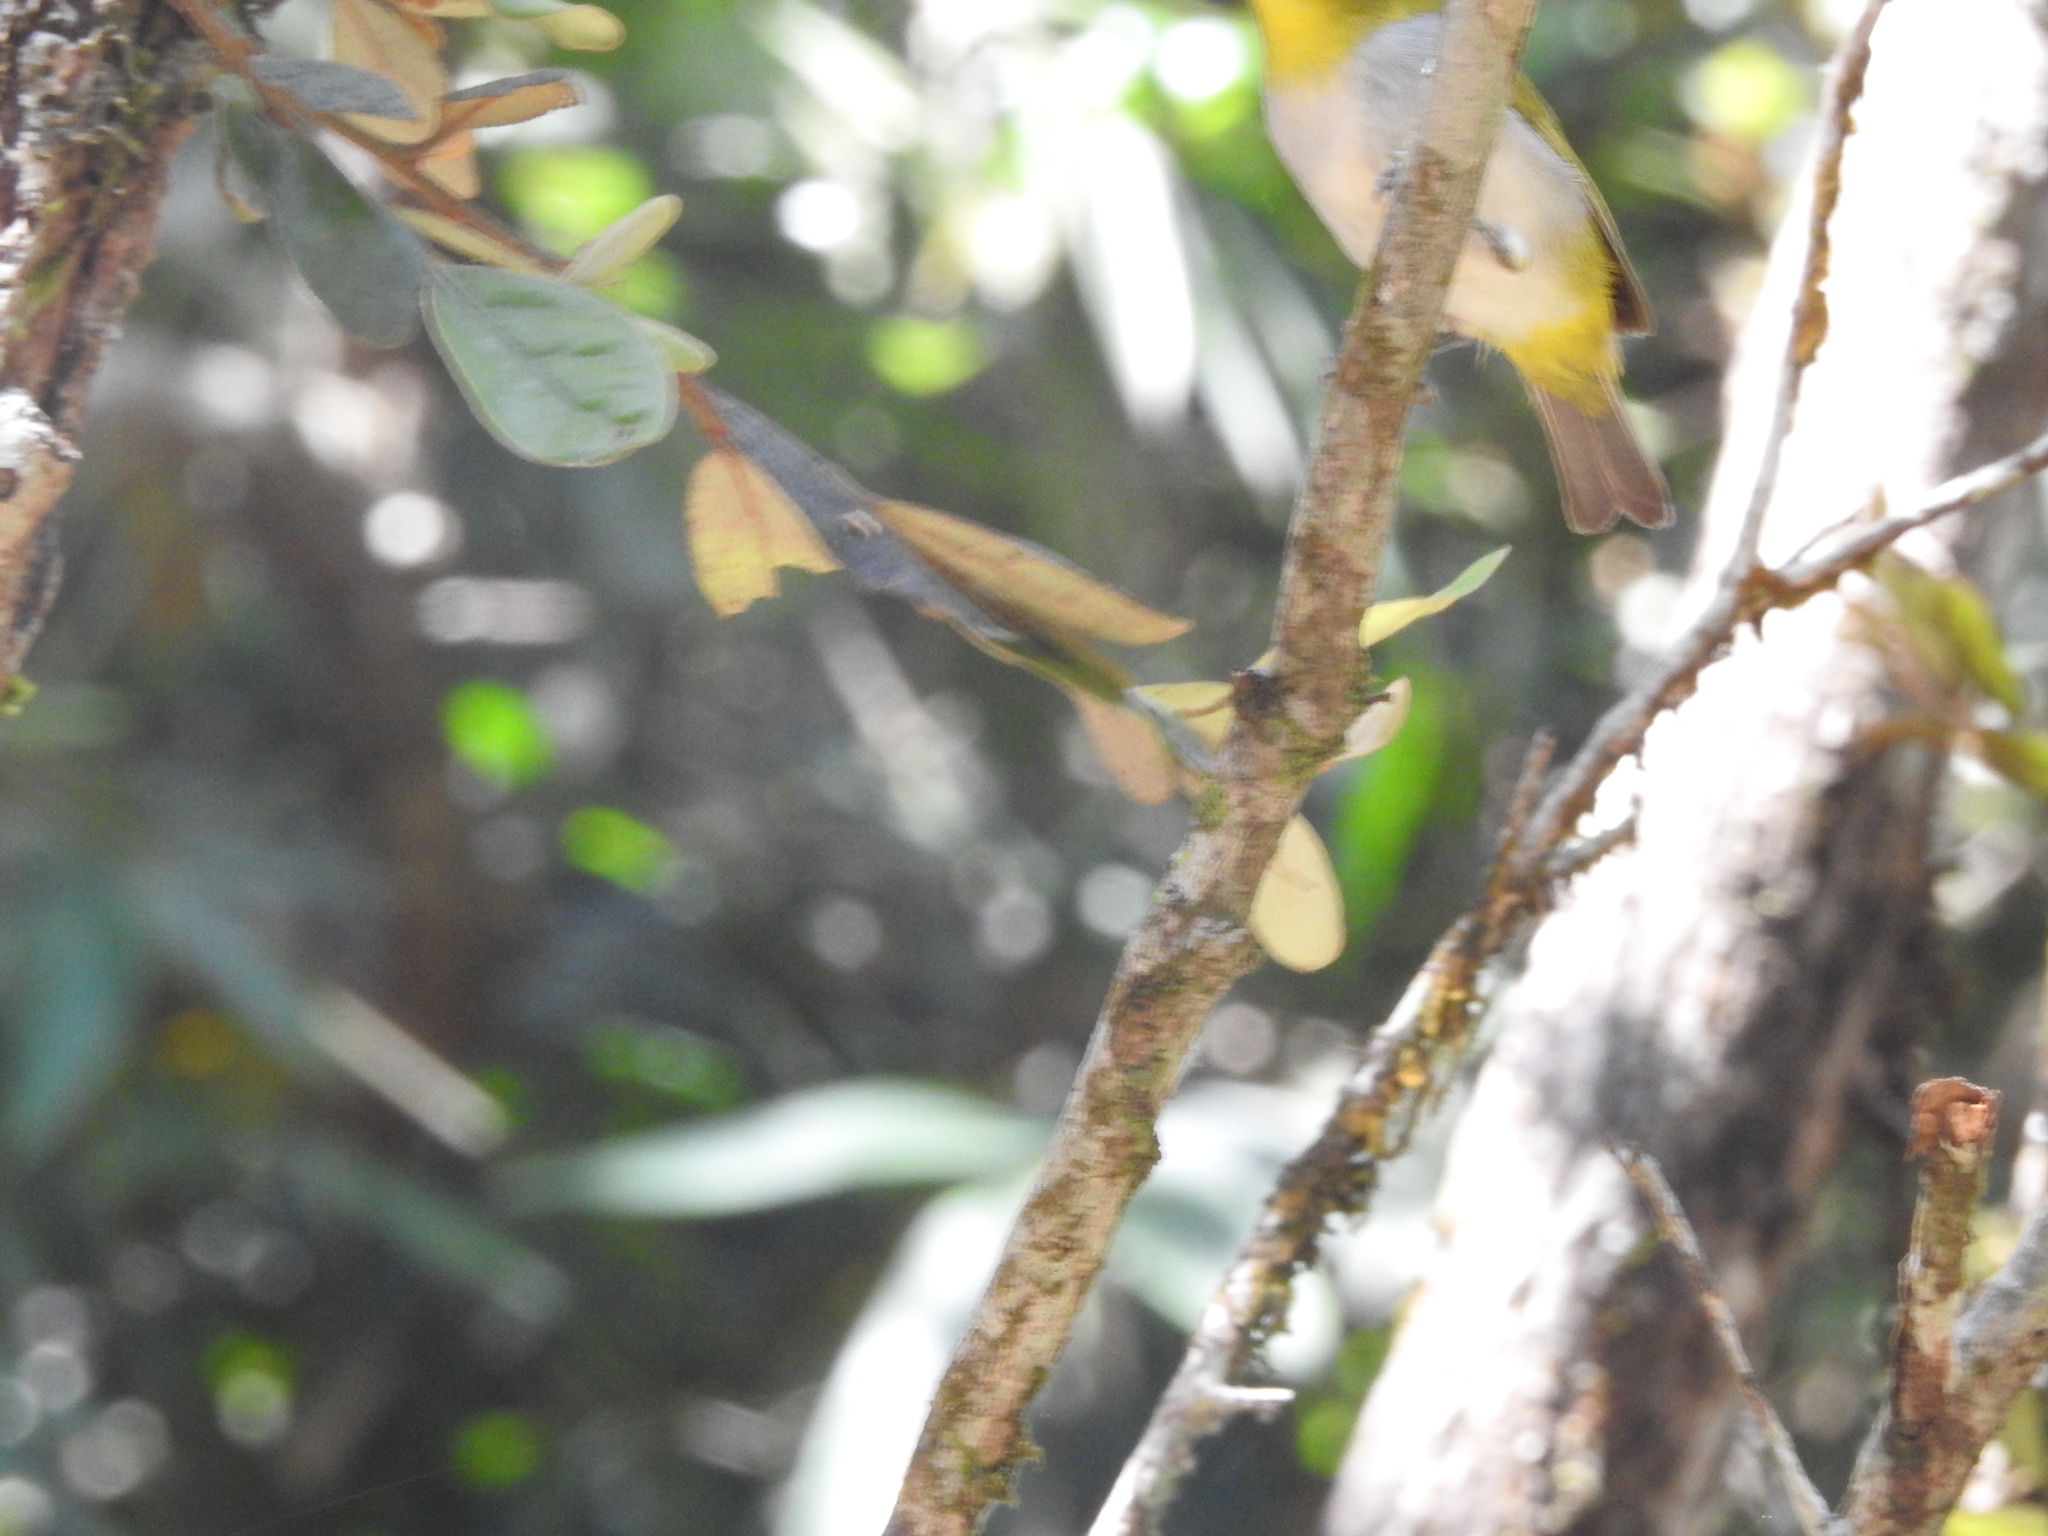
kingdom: Animalia
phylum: Chordata
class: Aves
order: Passeriformes
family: Zosteropidae
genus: Zosterops
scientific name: Zosterops palpebrosus
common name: Oriental white-eye
